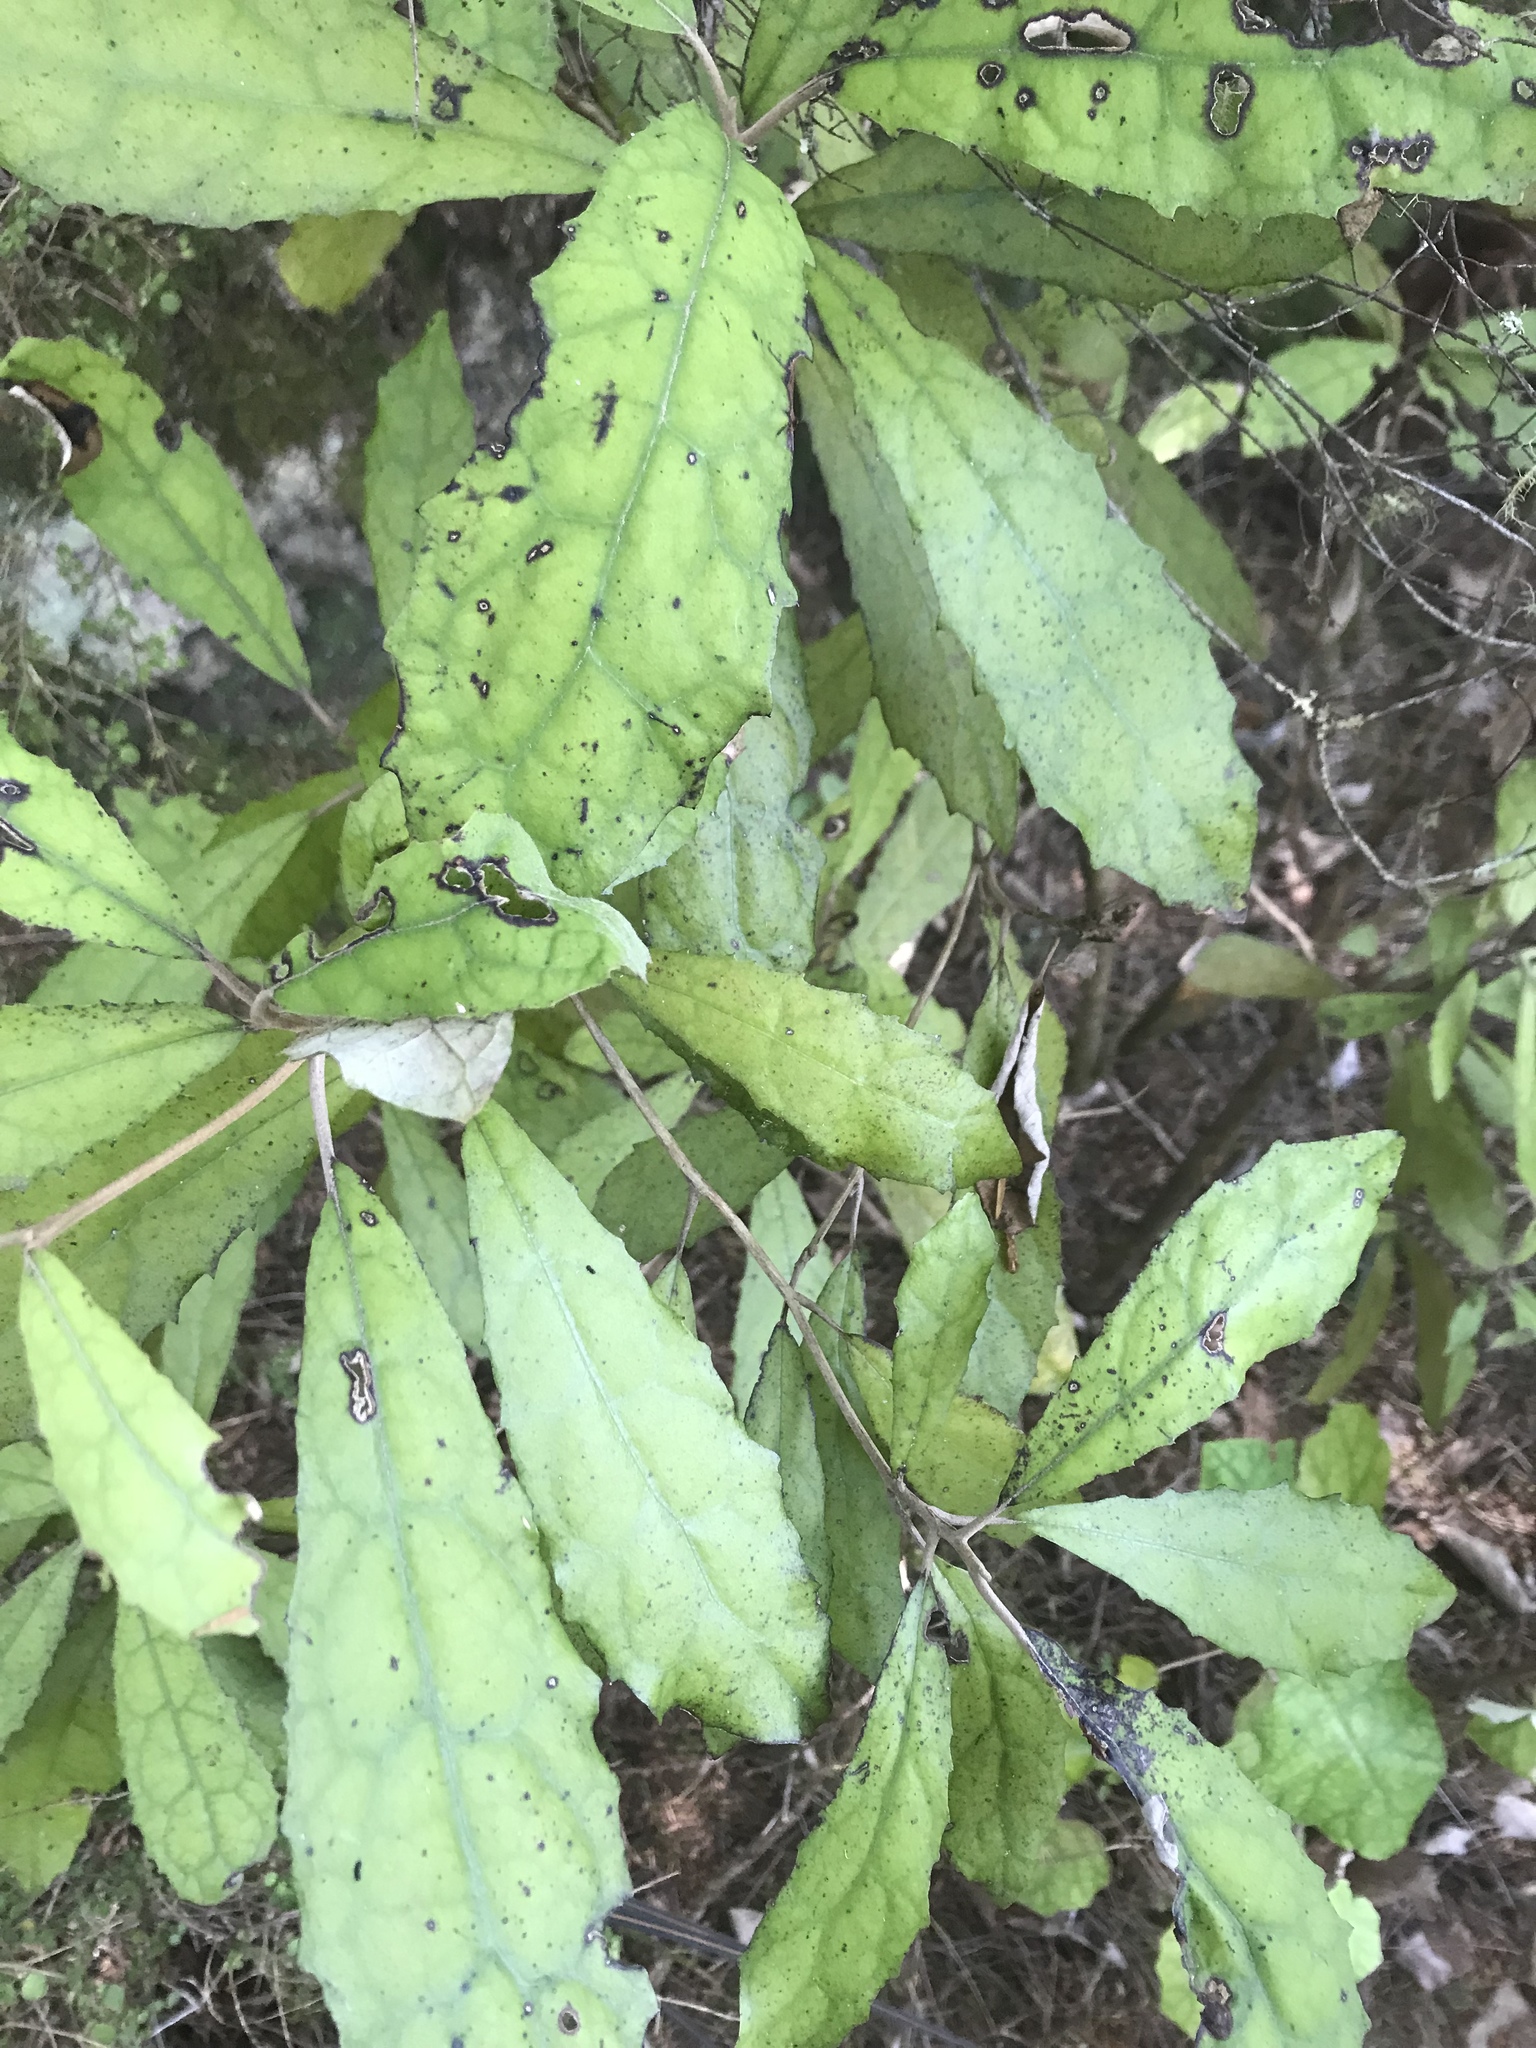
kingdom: Plantae
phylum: Tracheophyta
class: Magnoliopsida
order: Asterales
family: Asteraceae
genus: Olearia
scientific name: Olearia rani
